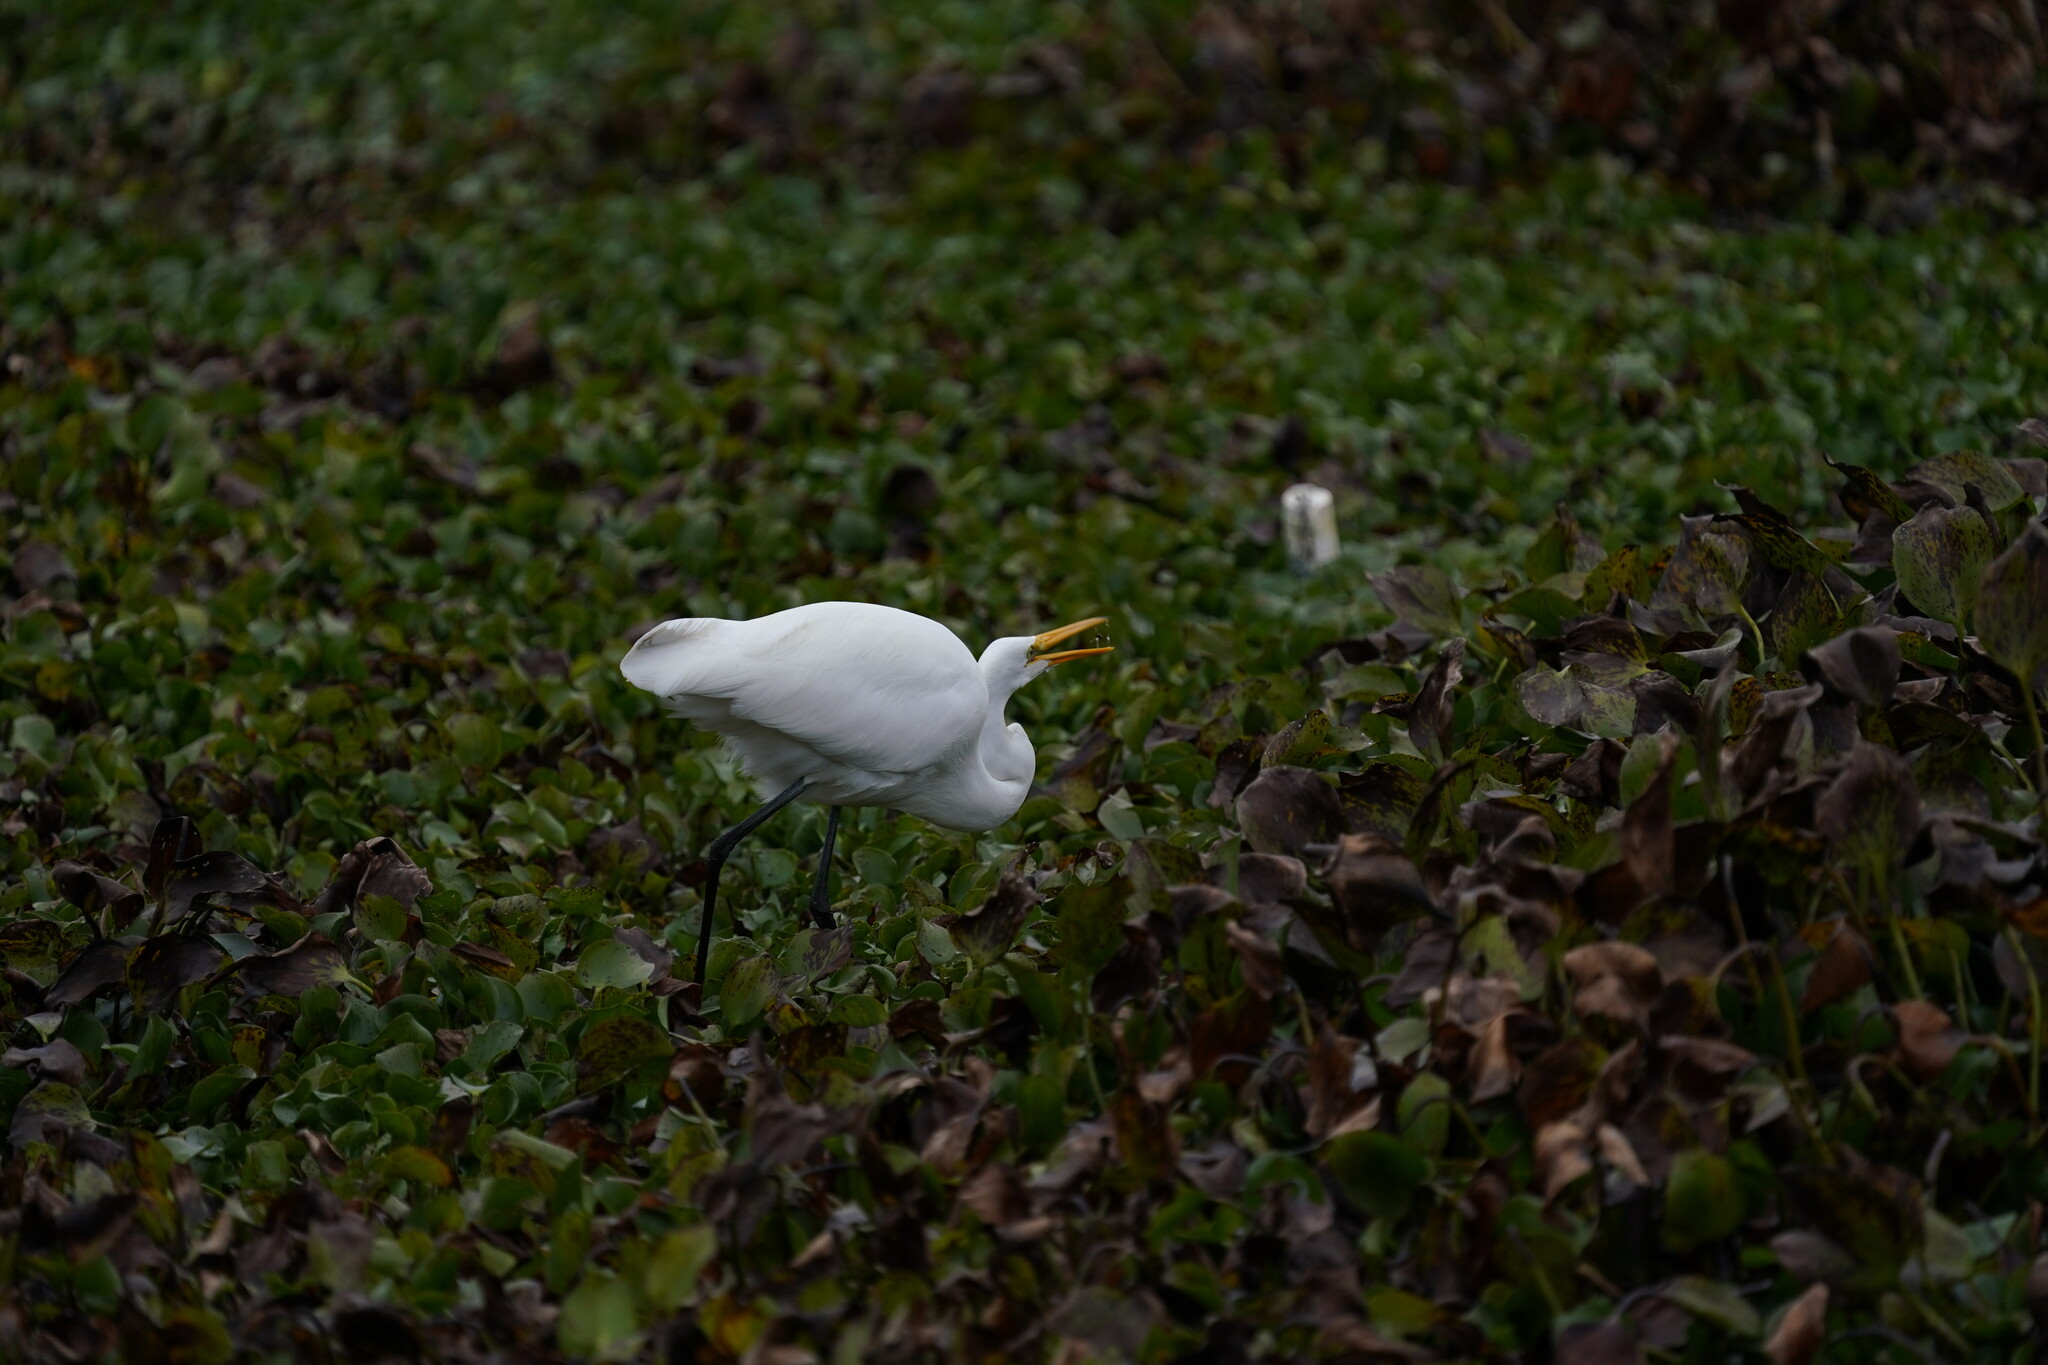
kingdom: Animalia
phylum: Chordata
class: Aves
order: Pelecaniformes
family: Ardeidae
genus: Ardea
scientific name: Ardea alba
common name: Great egret
